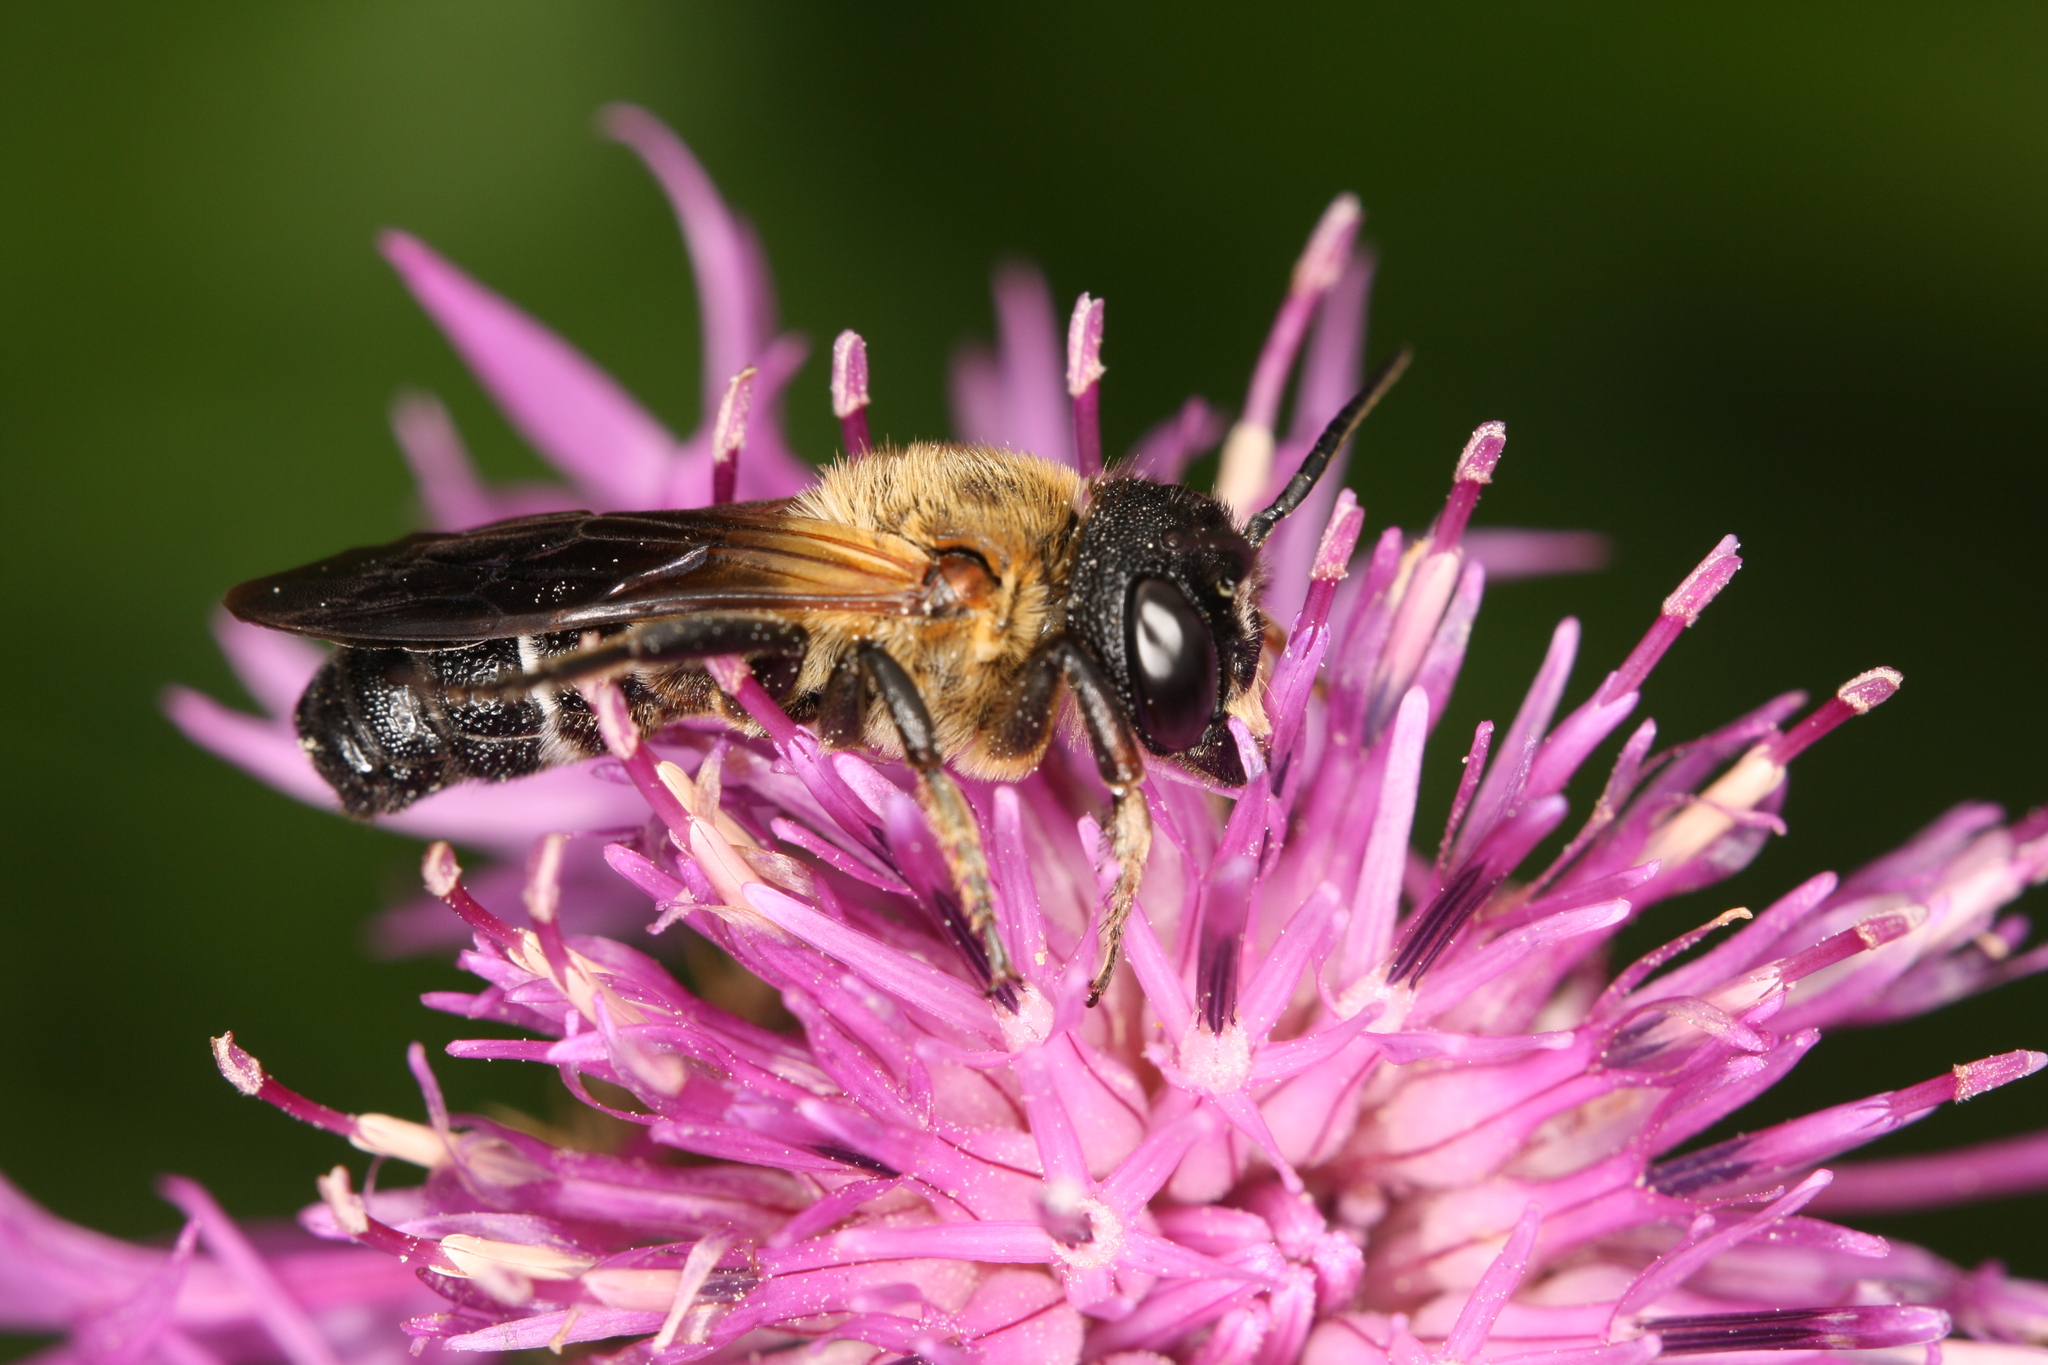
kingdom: Animalia
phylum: Arthropoda
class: Insecta
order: Hymenoptera
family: Megachilidae
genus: Megachile
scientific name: Megachile sculpturalis
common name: Sculptured resin bee
